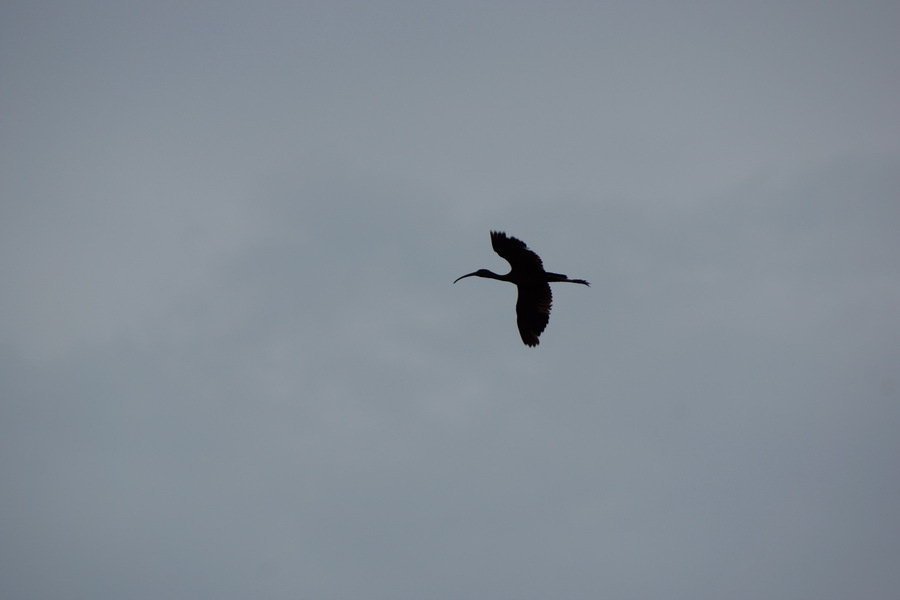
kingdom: Animalia
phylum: Chordata
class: Aves
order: Pelecaniformes
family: Threskiornithidae
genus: Plegadis
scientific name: Plegadis falcinellus
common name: Glossy ibis
